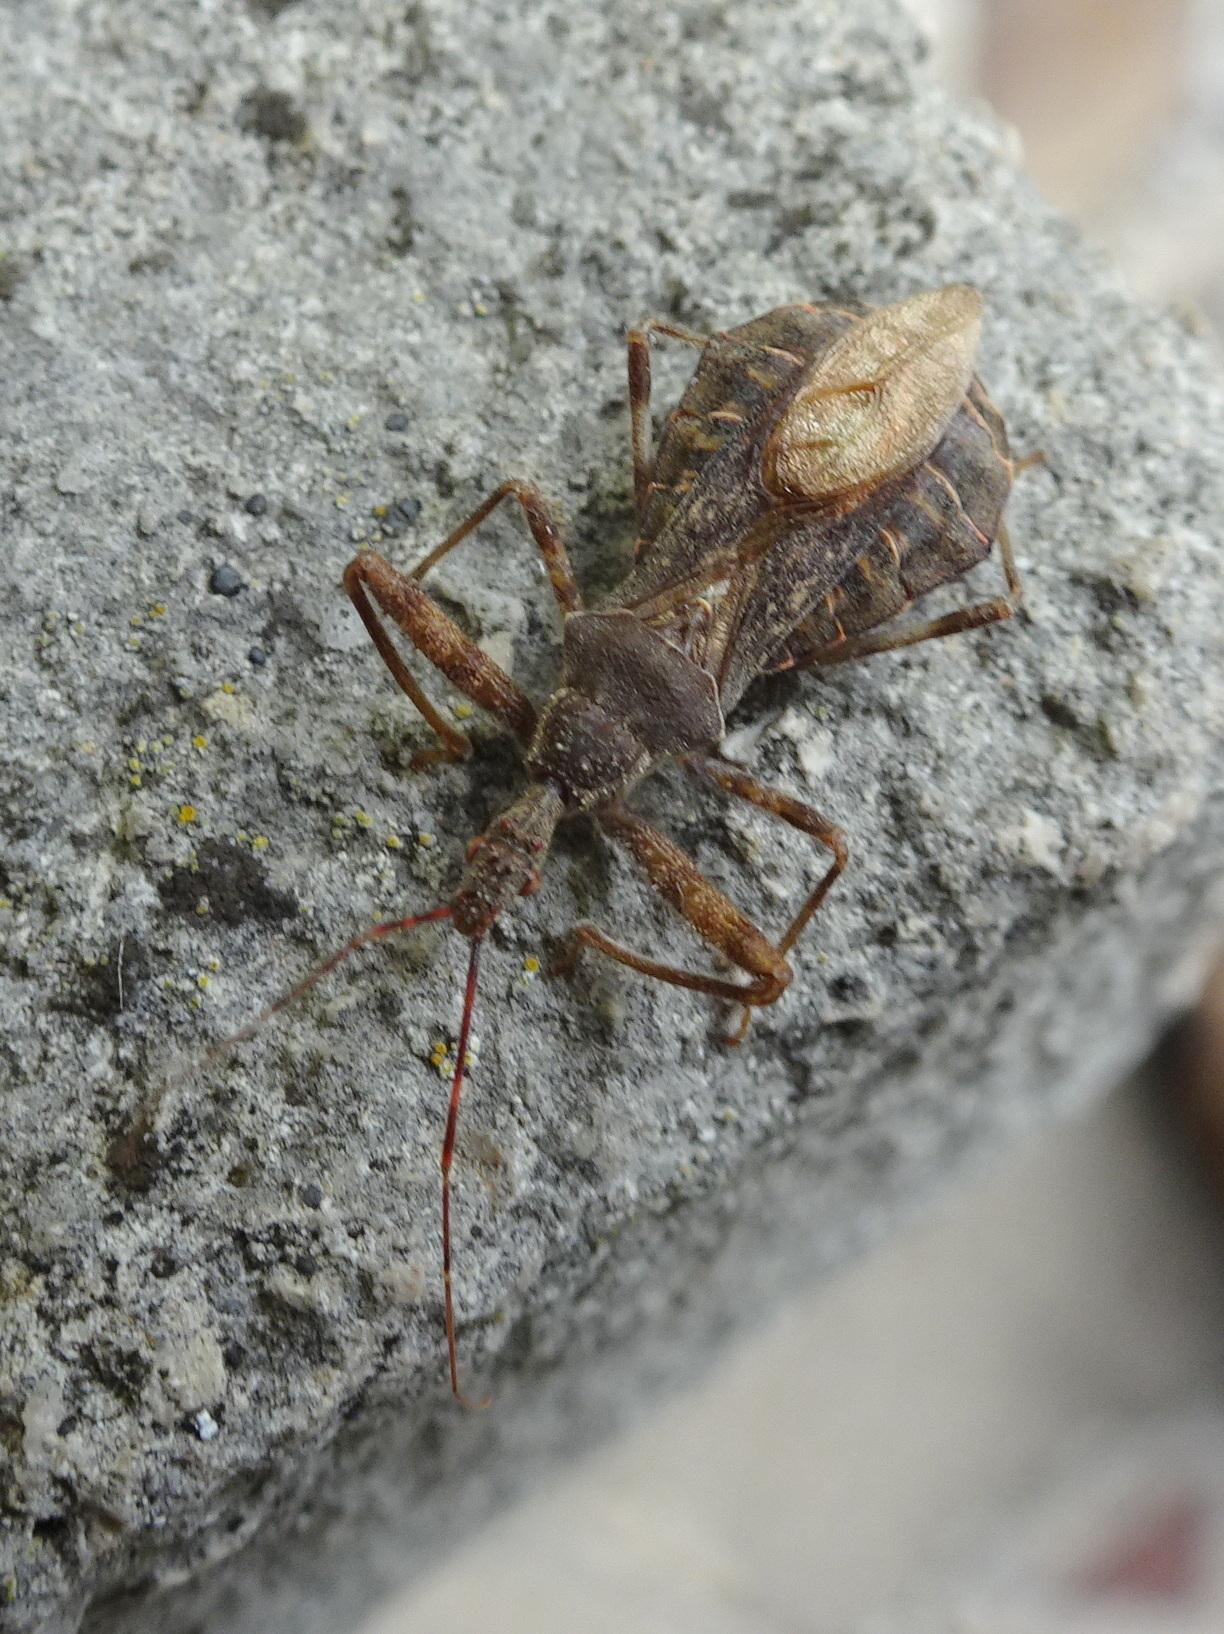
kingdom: Animalia
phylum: Arthropoda
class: Insecta
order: Hemiptera
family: Reduviidae
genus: Acholla
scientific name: Acholla multispinosa
